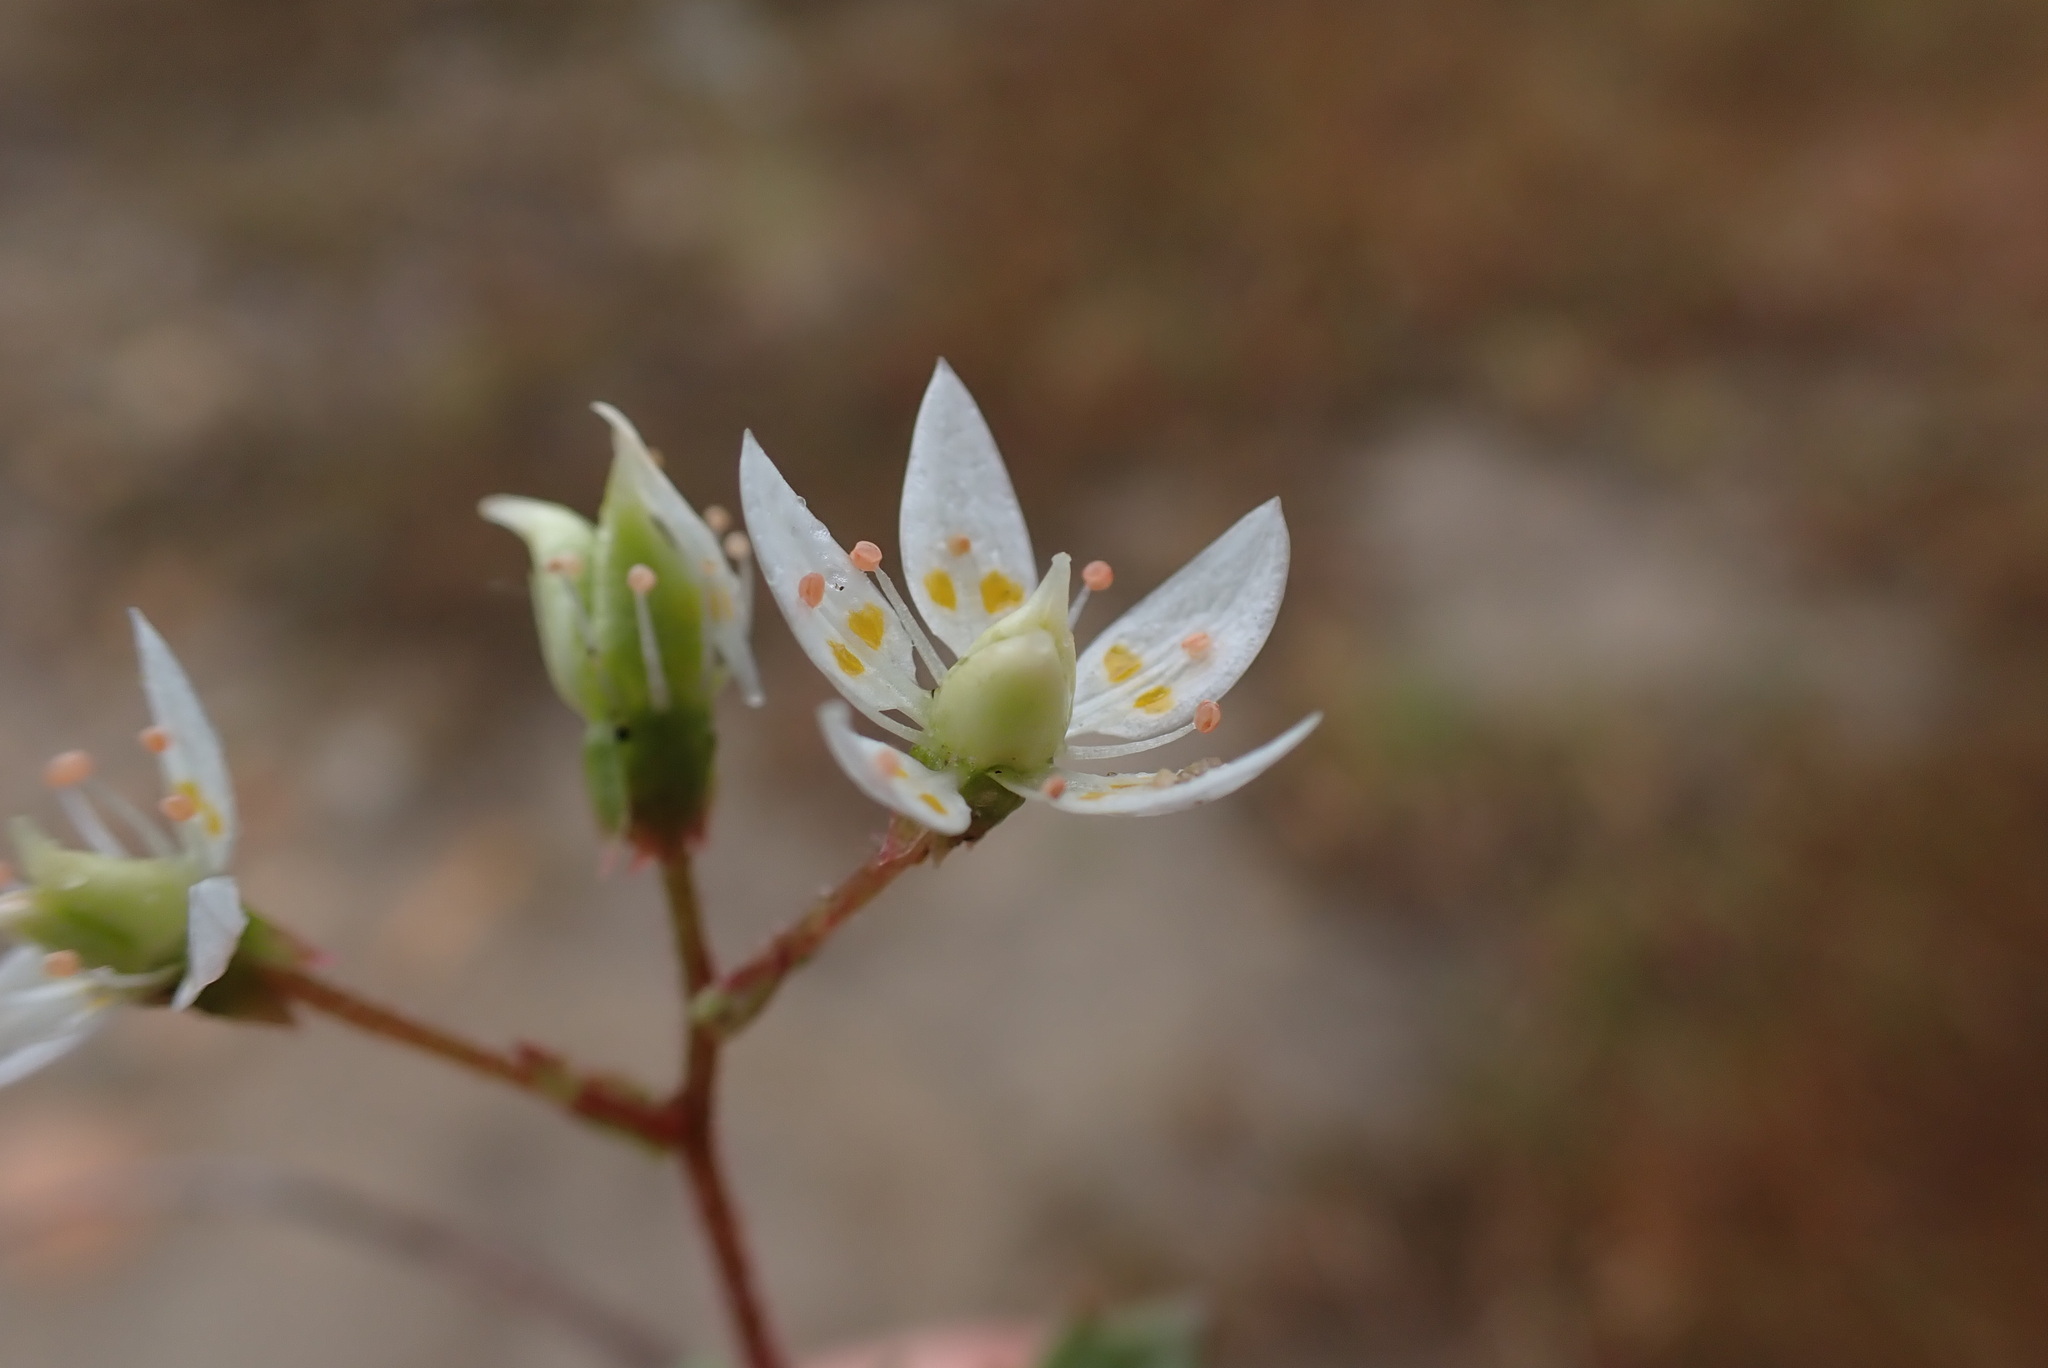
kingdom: Plantae
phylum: Tracheophyta
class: Magnoliopsida
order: Saxifragales
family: Saxifragaceae
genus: Micranthes
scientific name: Micranthes stellaris
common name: Starry saxifrage
